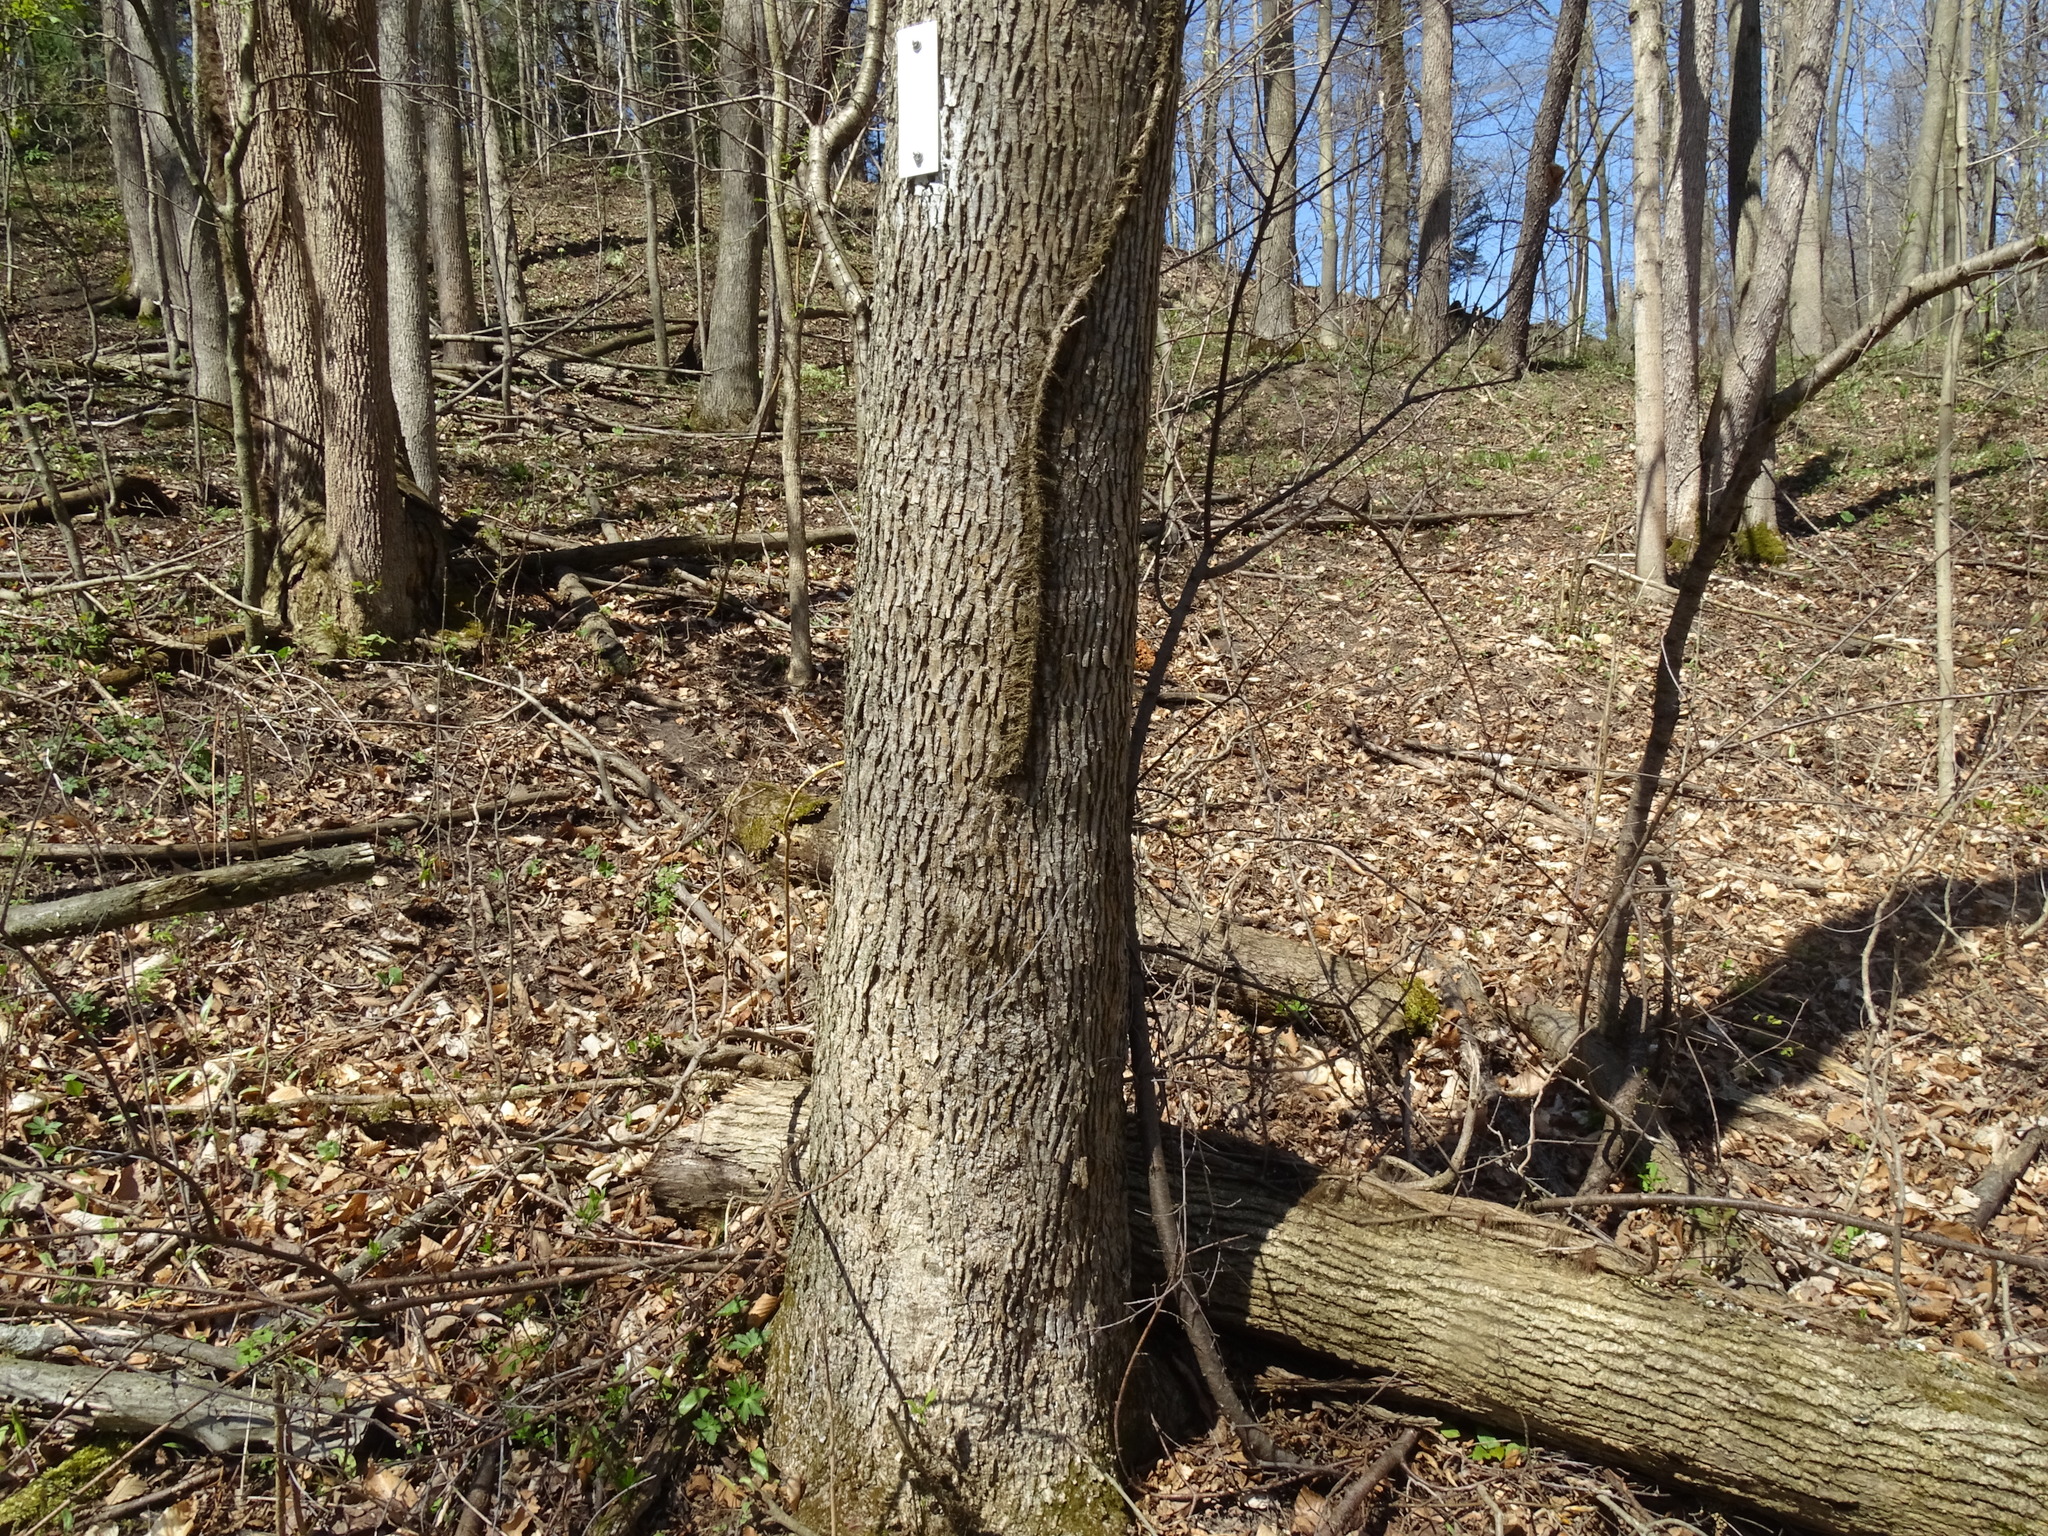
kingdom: Plantae
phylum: Tracheophyta
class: Magnoliopsida
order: Fagales
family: Juglandaceae
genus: Carya
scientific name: Carya cordiformis
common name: Bitternut hickory
